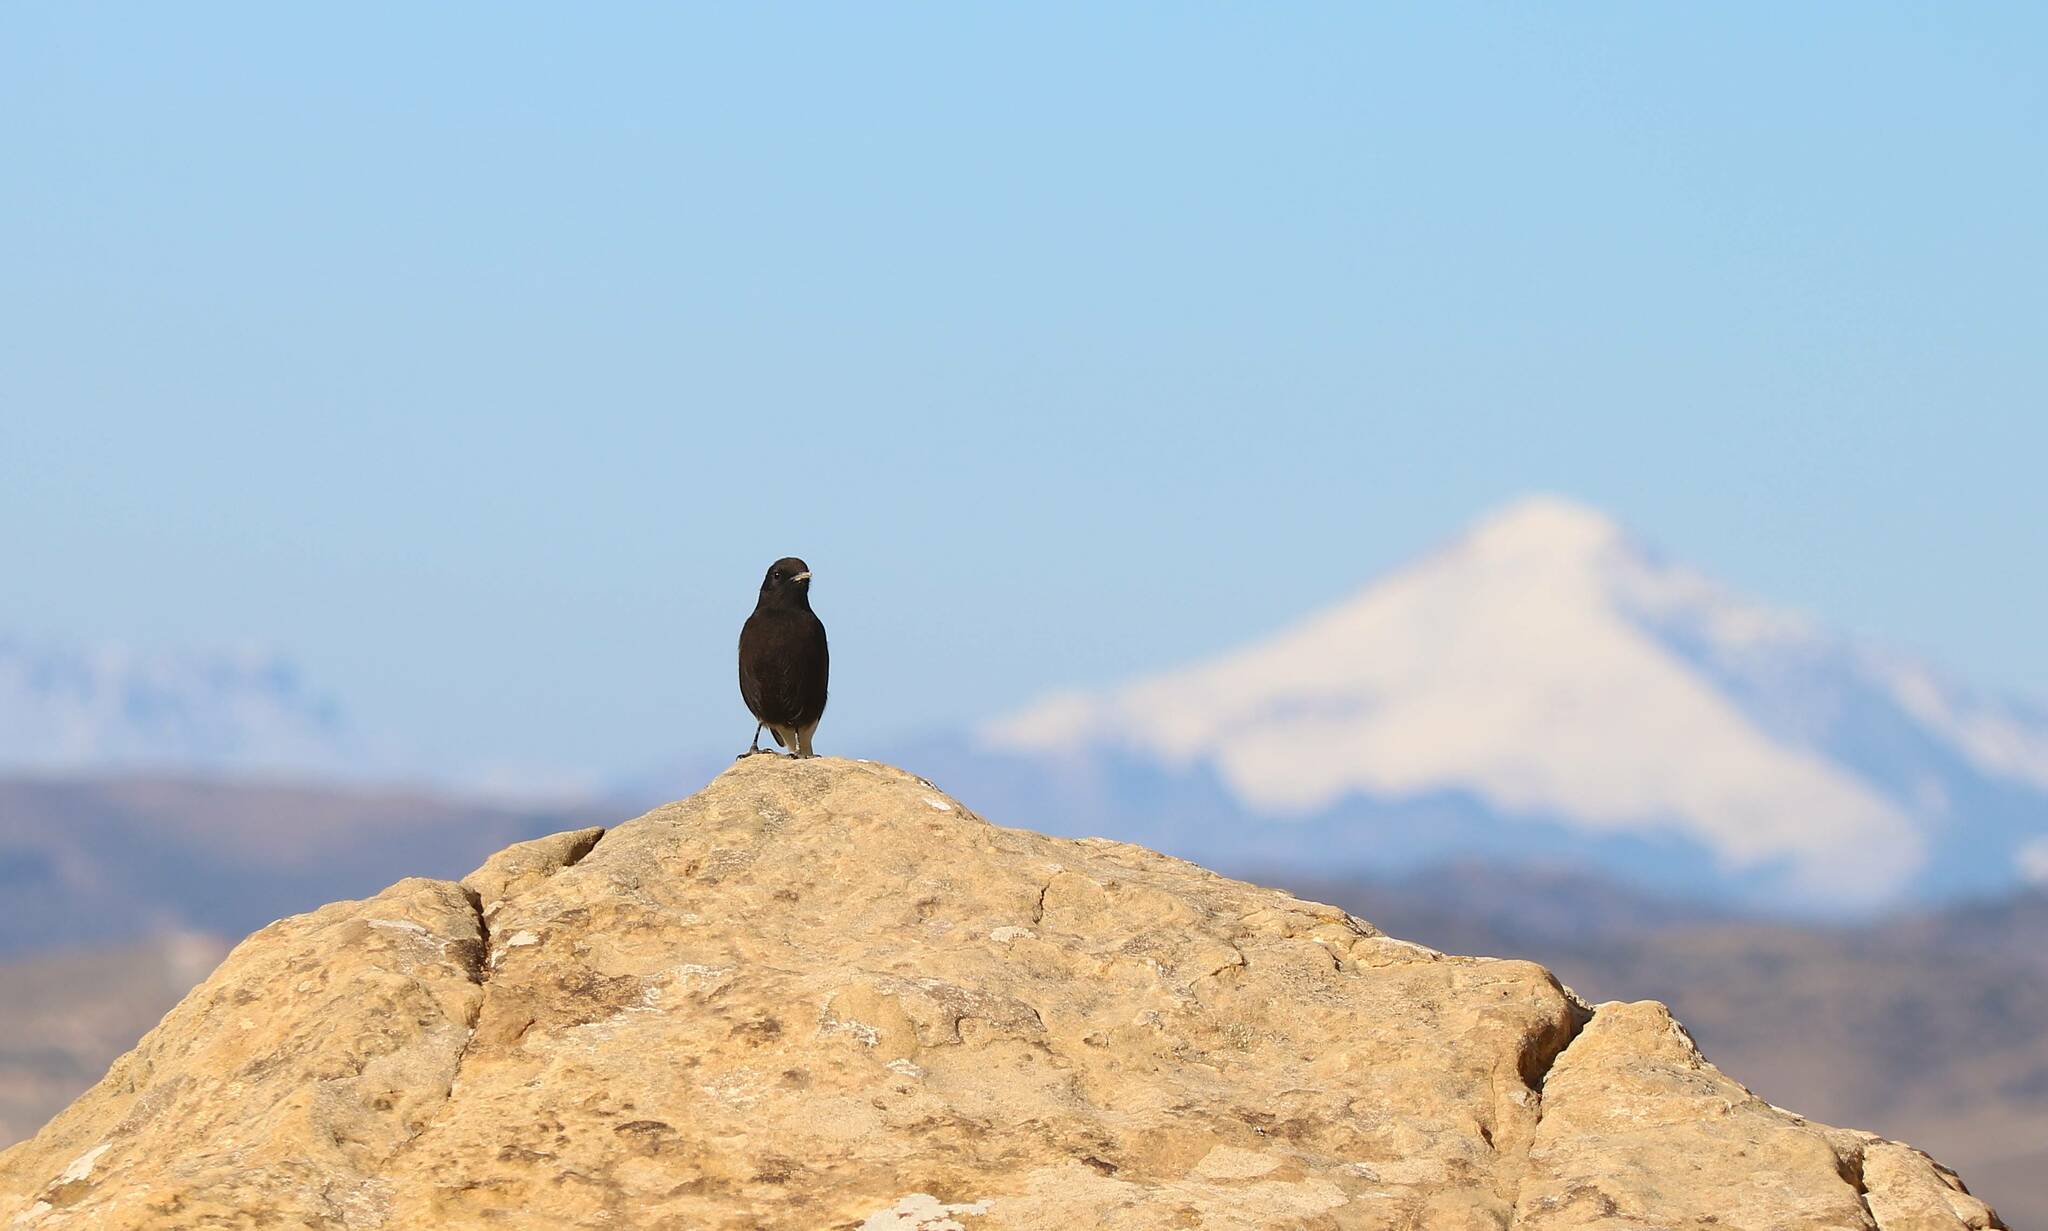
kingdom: Animalia
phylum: Chordata
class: Aves
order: Passeriformes
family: Muscicapidae
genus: Oenanthe
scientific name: Oenanthe leucura
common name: Black wheatear
